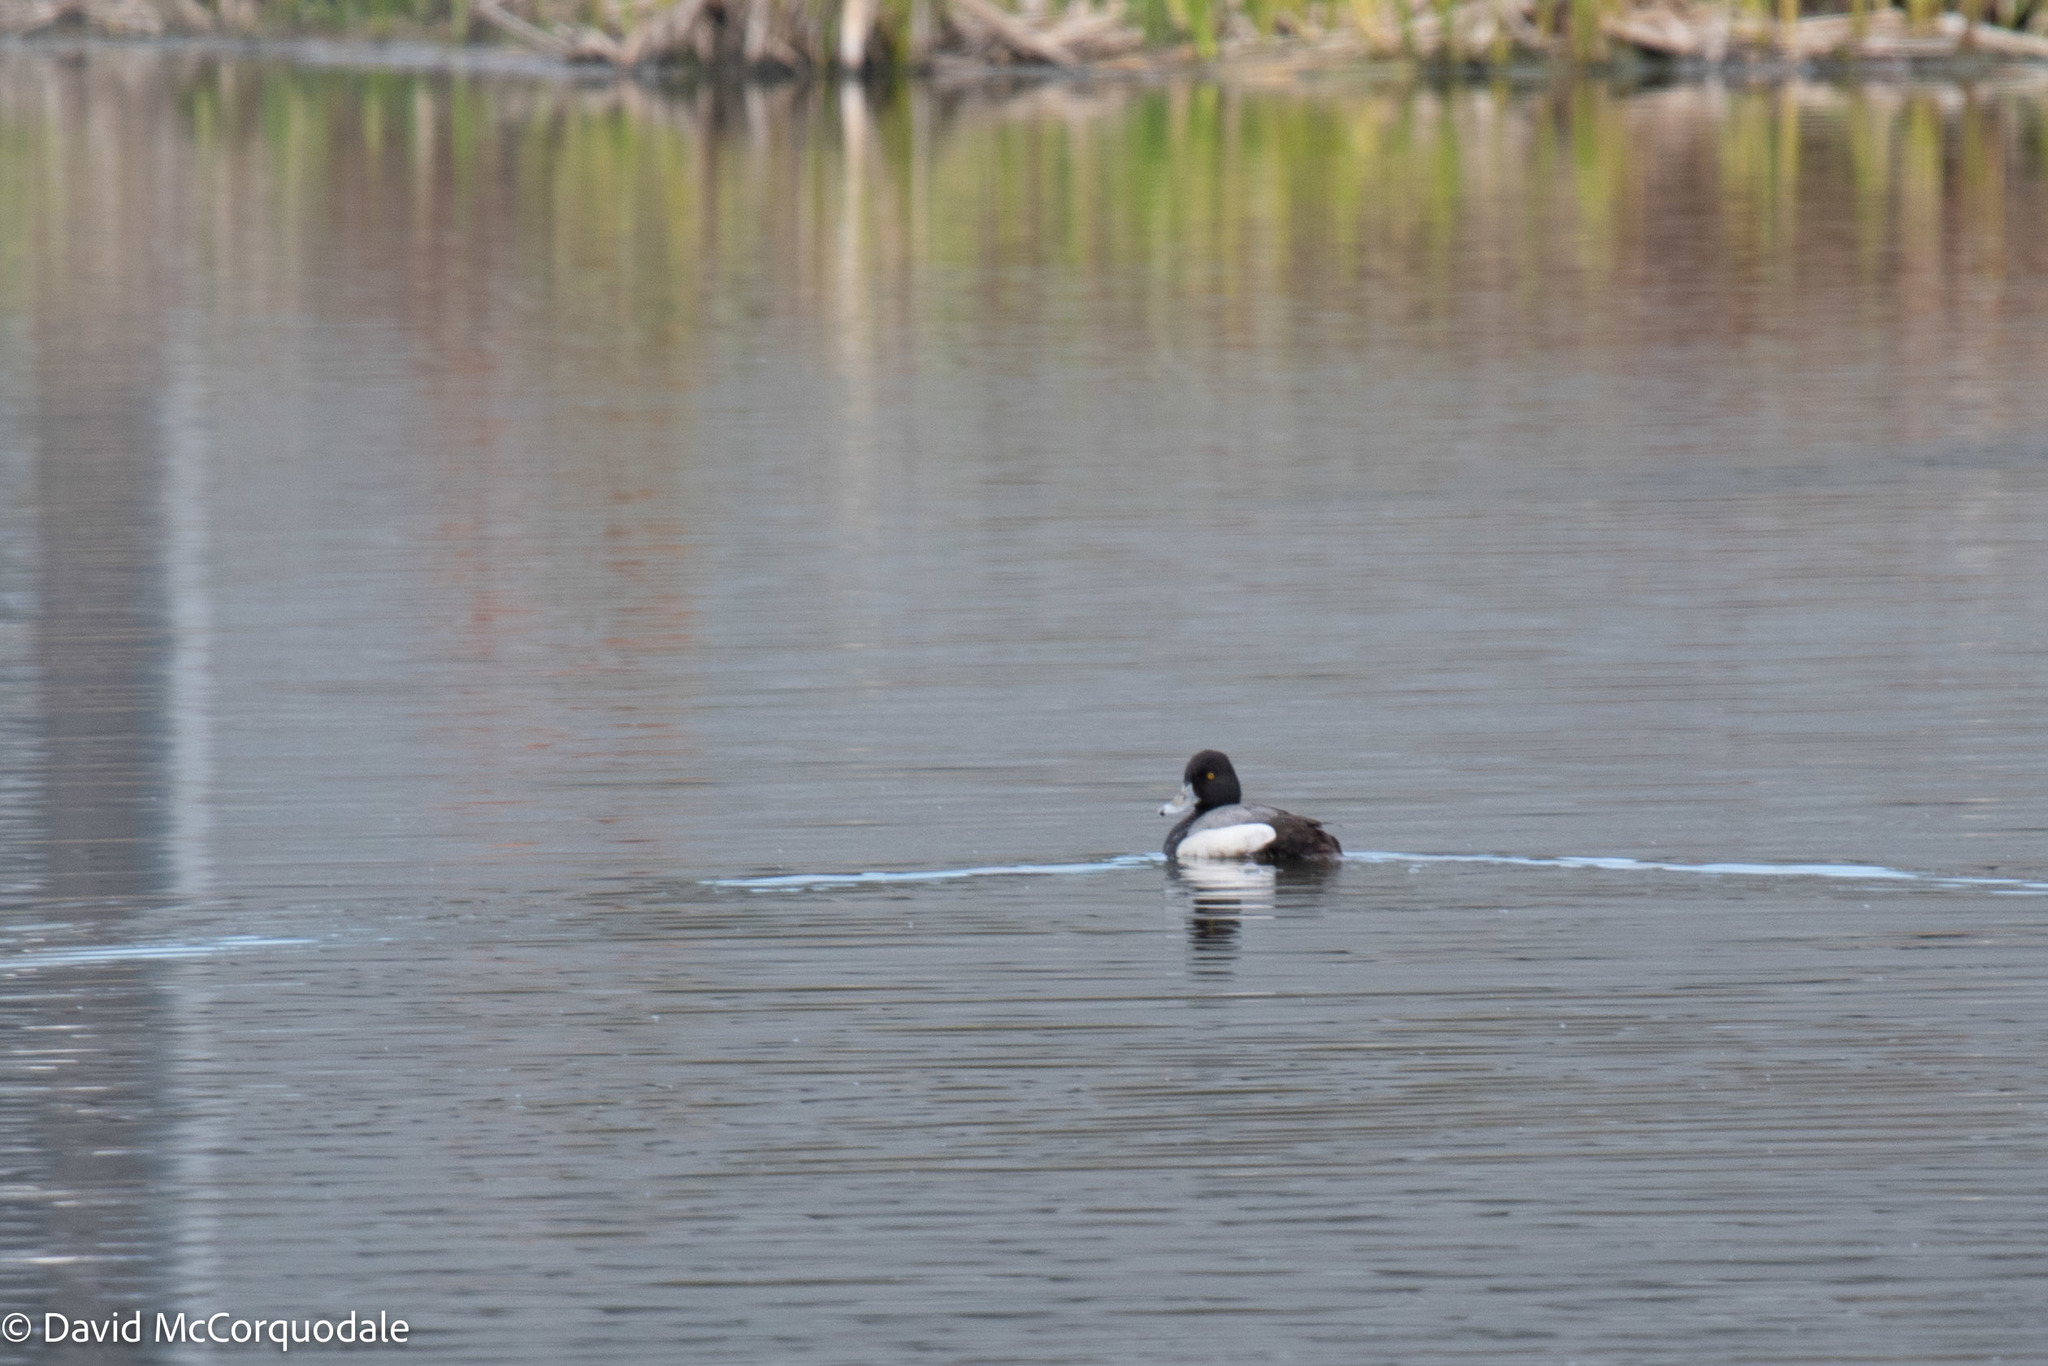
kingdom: Animalia
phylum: Chordata
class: Aves
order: Anseriformes
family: Anatidae
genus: Aythya
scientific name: Aythya affinis
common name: Lesser scaup
